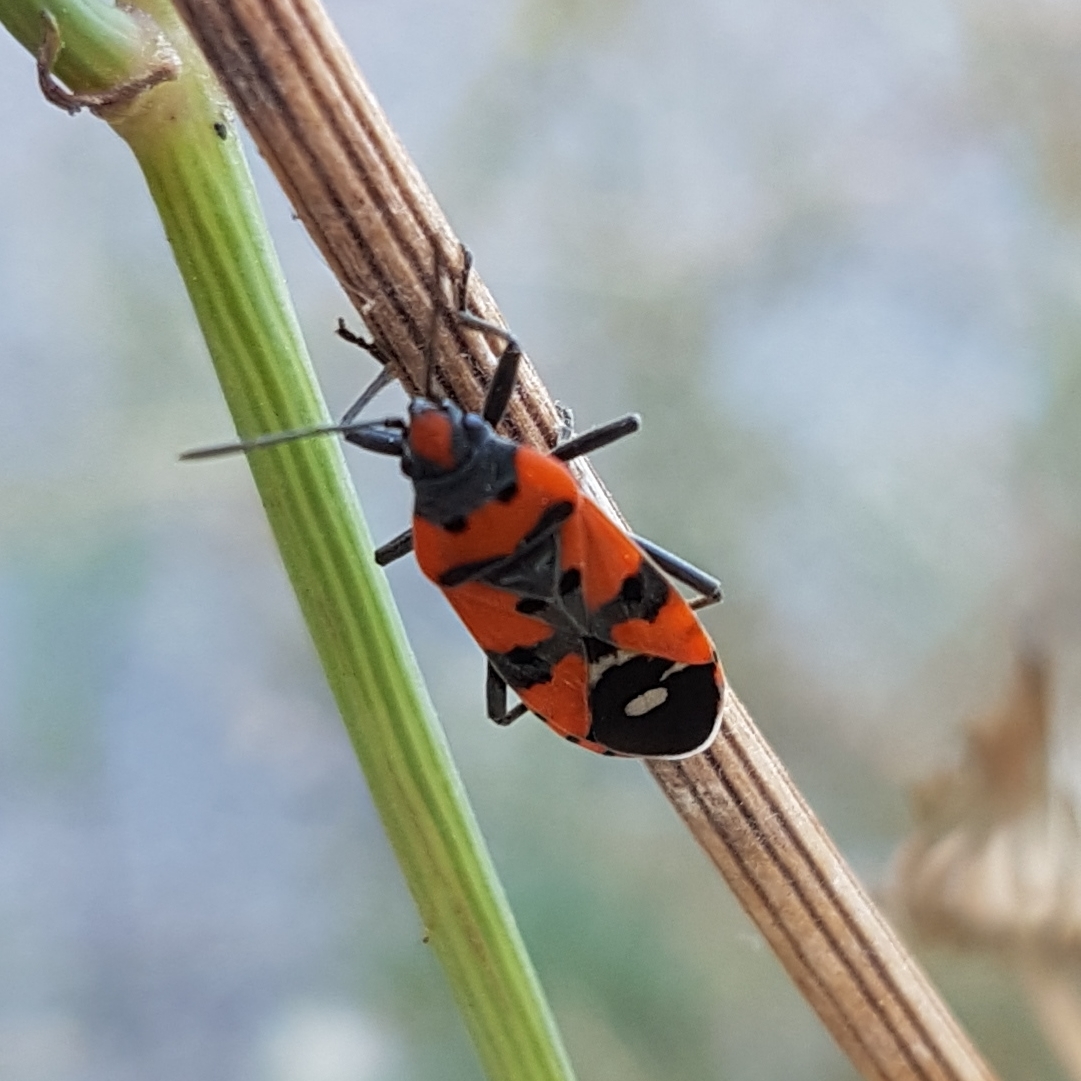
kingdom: Animalia
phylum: Arthropoda
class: Insecta
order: Hemiptera
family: Lygaeidae
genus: Lygaeus
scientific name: Lygaeus equestris
